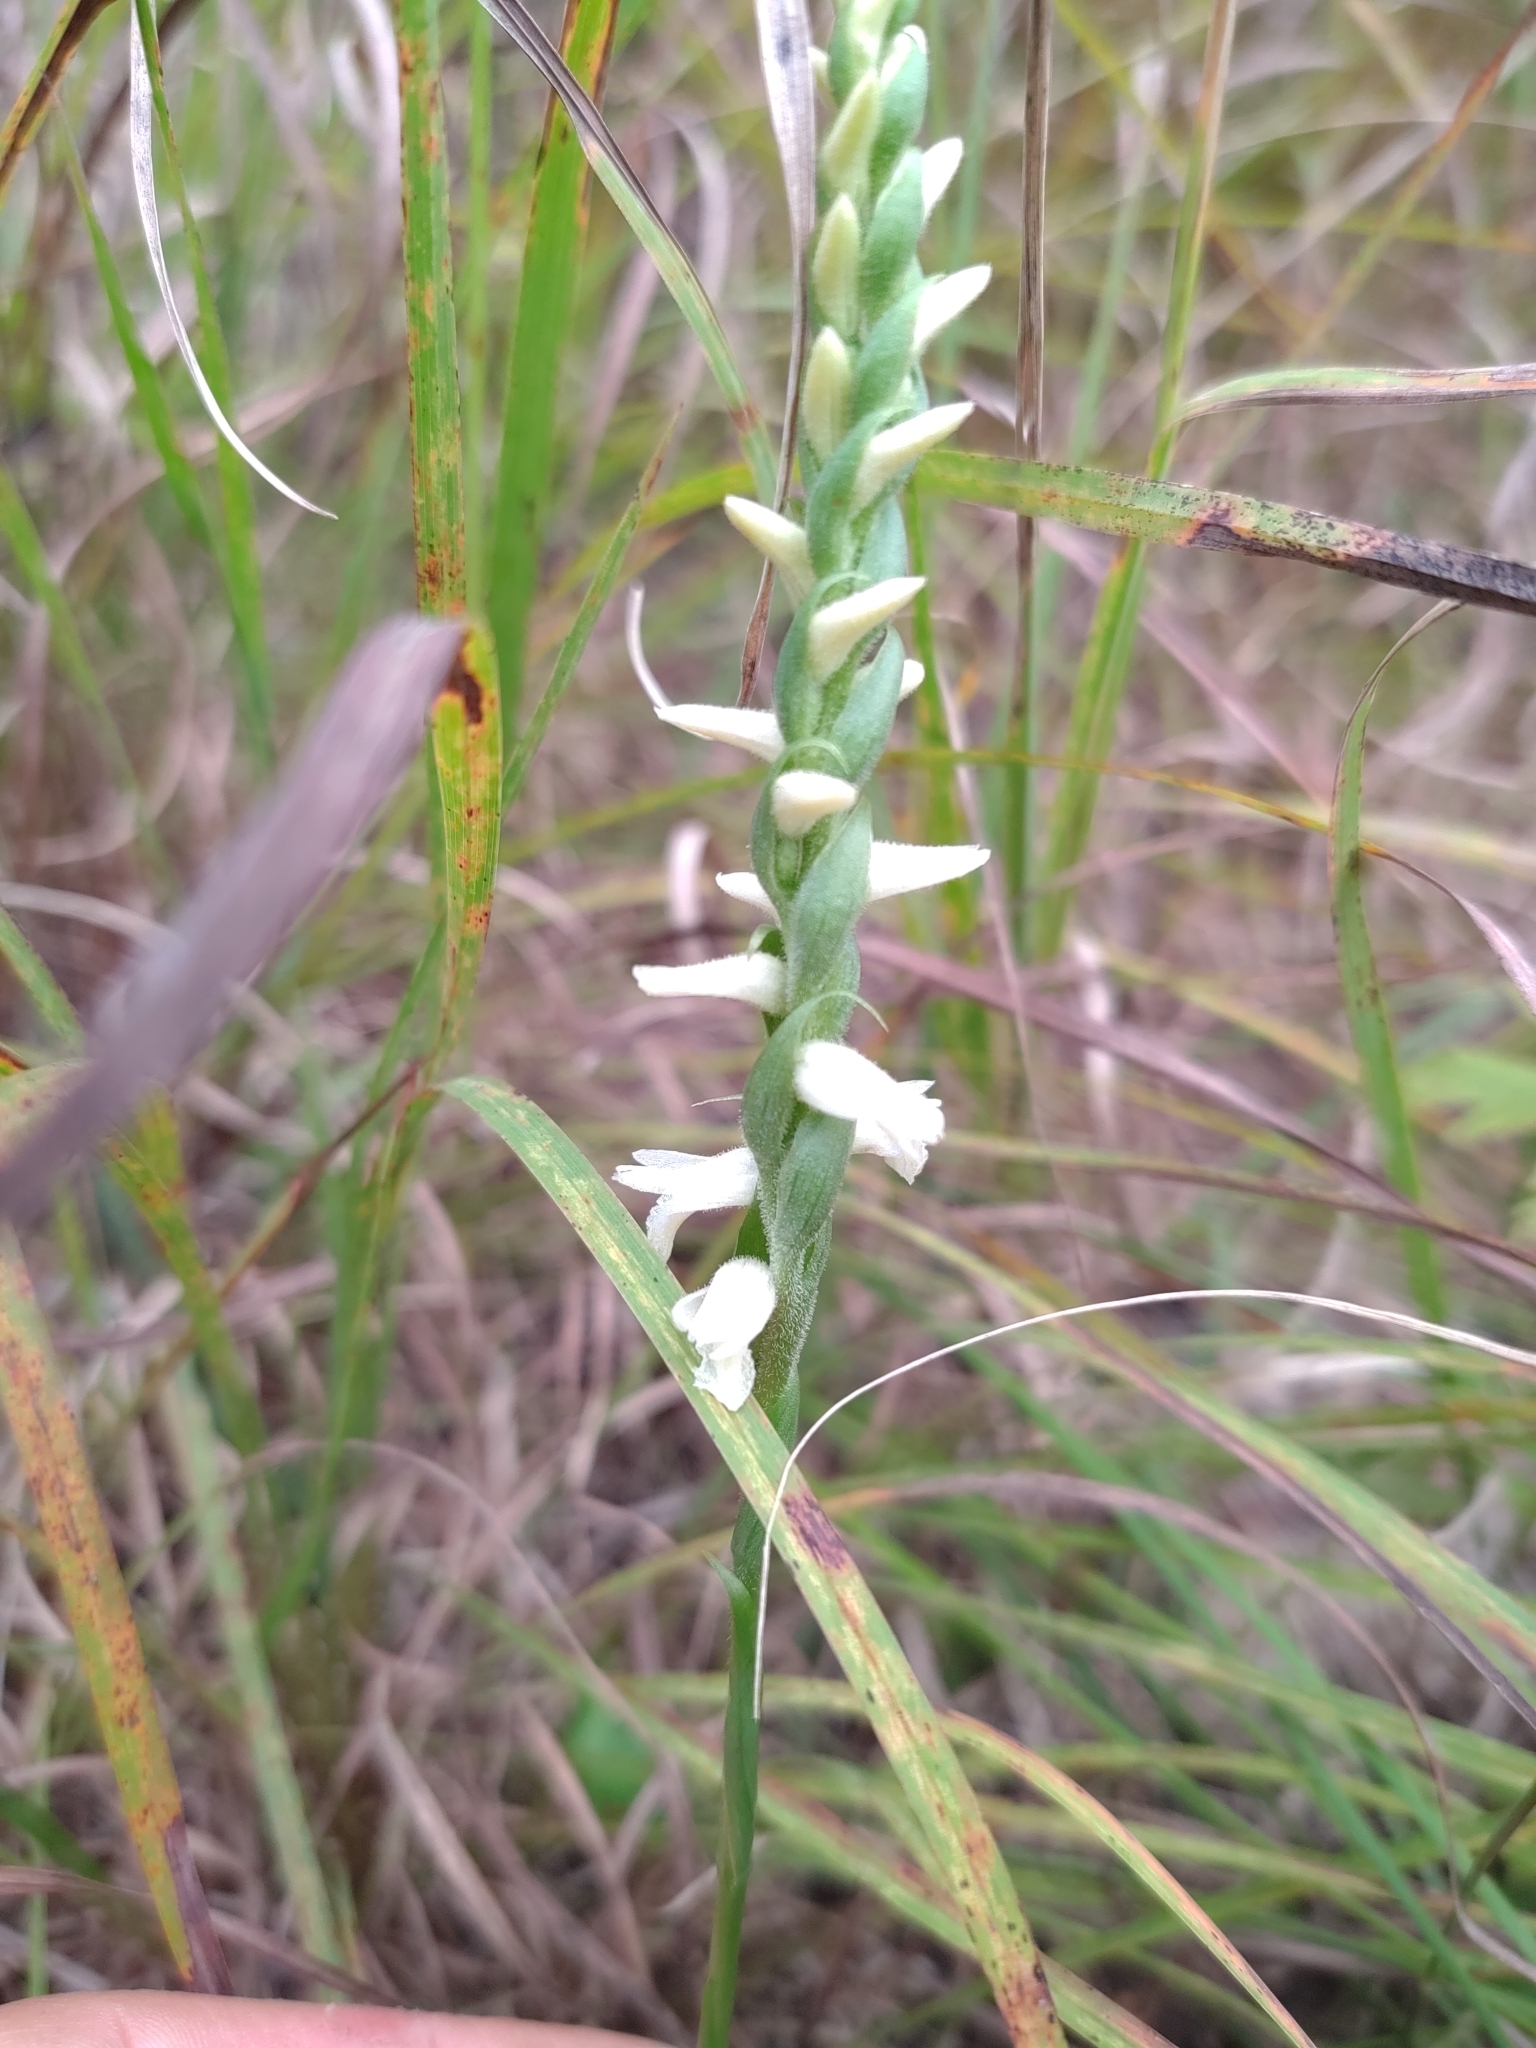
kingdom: Plantae
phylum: Tracheophyta
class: Liliopsida
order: Asparagales
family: Orchidaceae
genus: Spiranthes
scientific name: Spiranthes magnicamporum
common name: Great plains ladies'-tresses
